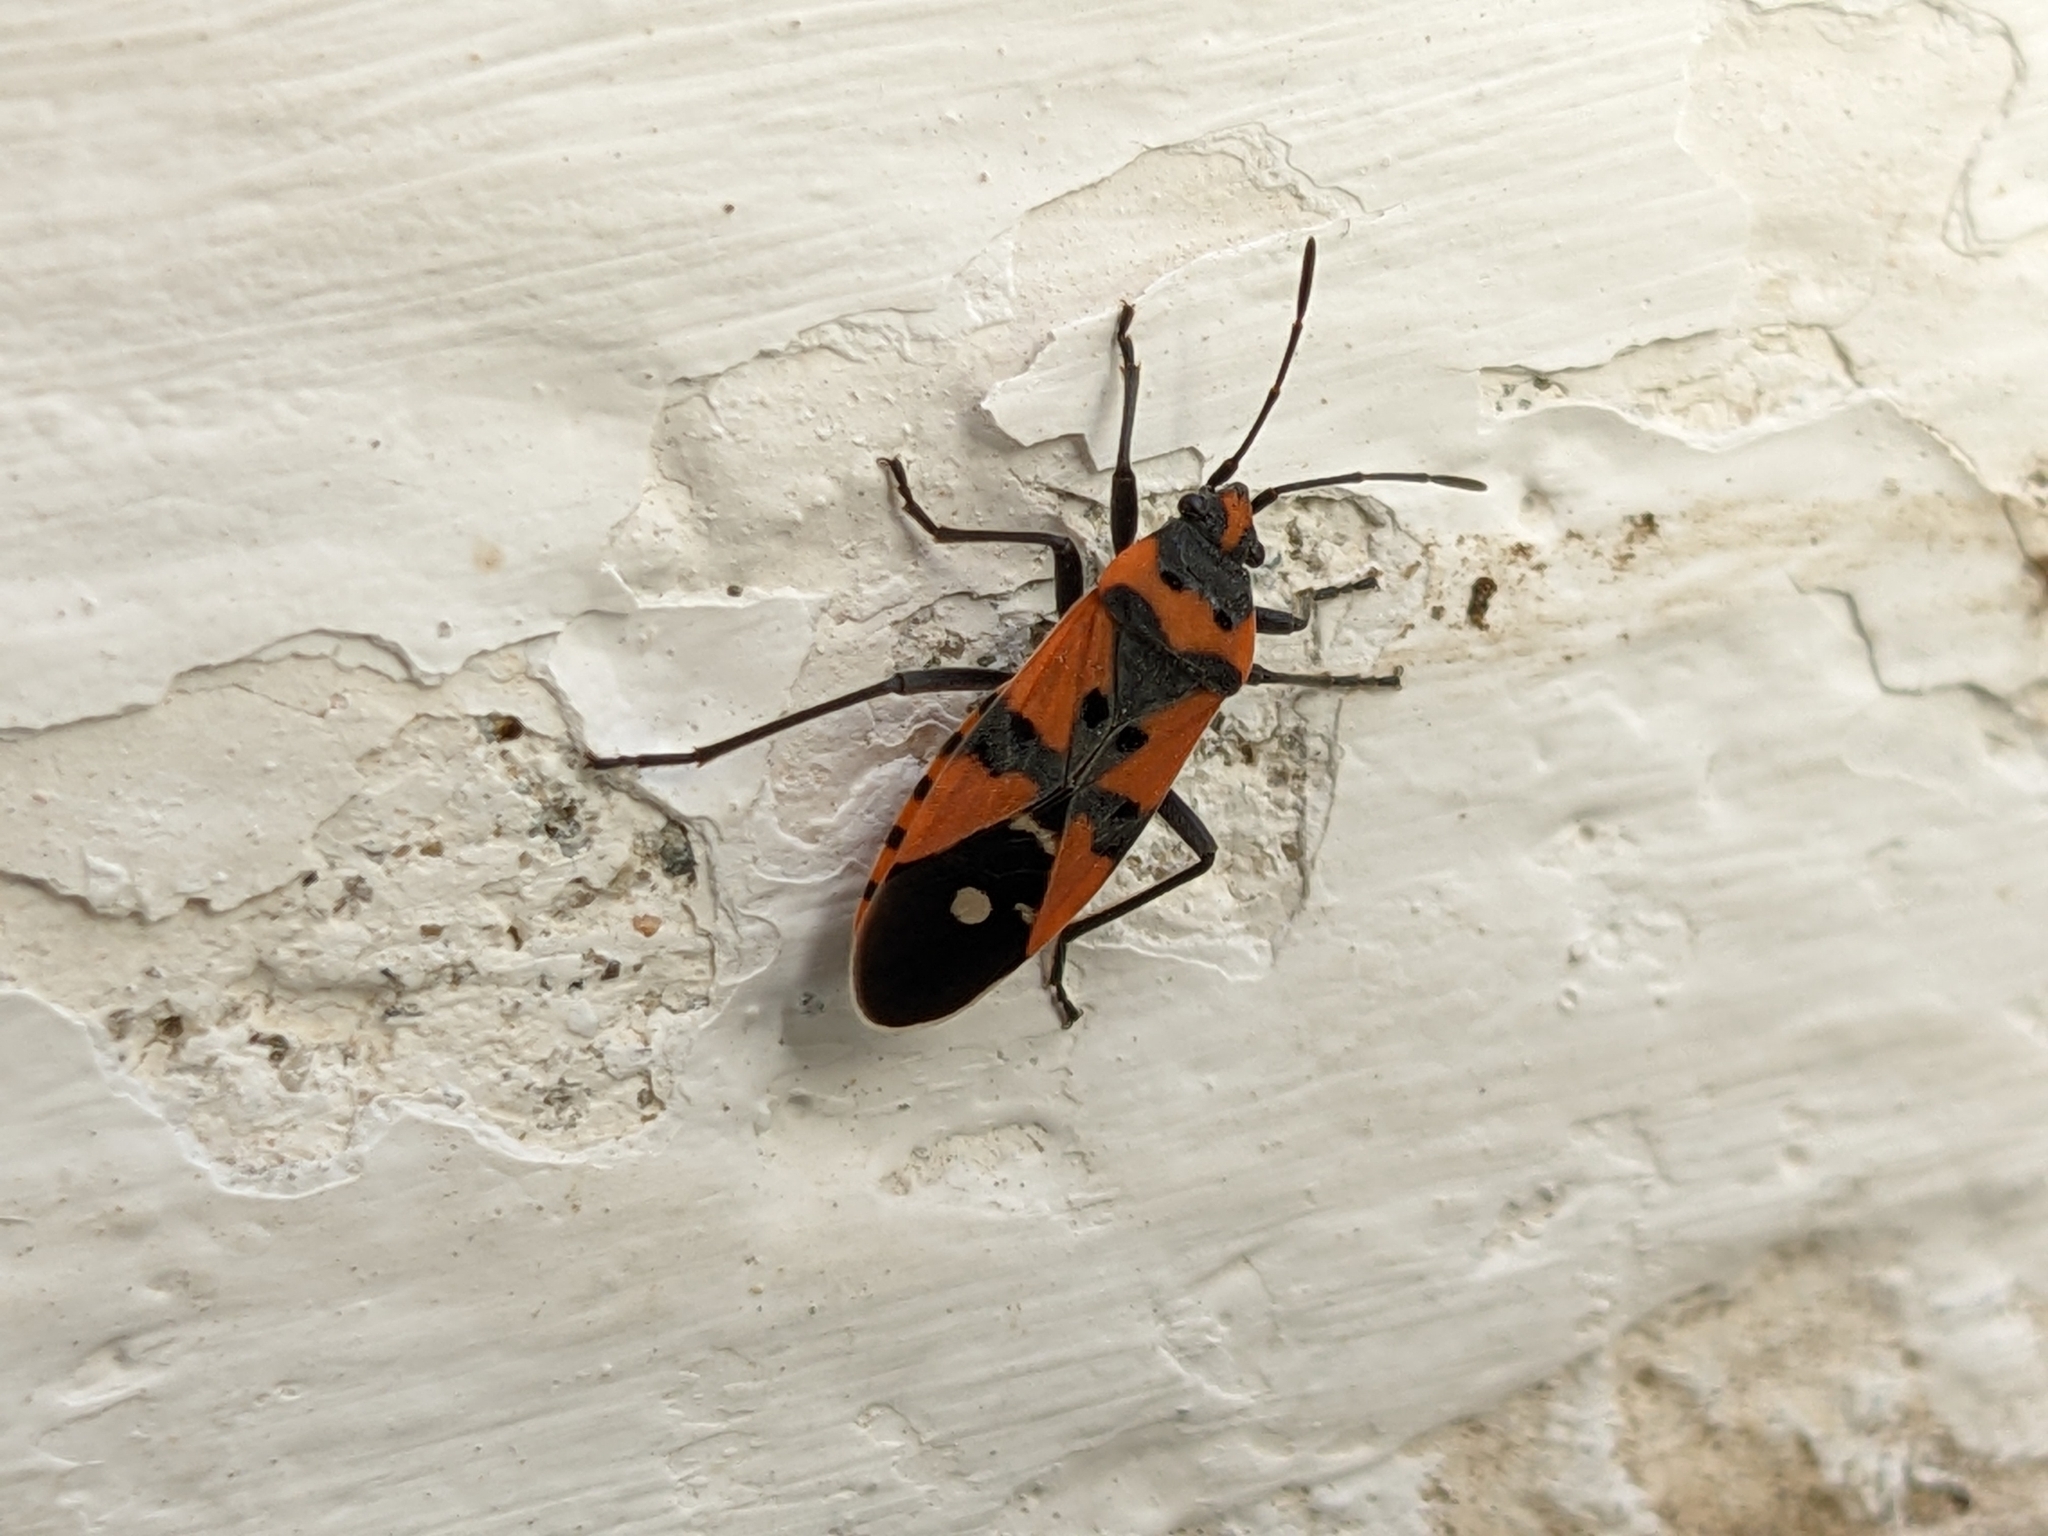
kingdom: Animalia
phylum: Arthropoda
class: Insecta
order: Hemiptera
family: Lygaeidae
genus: Lygaeus
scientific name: Lygaeus equestris
